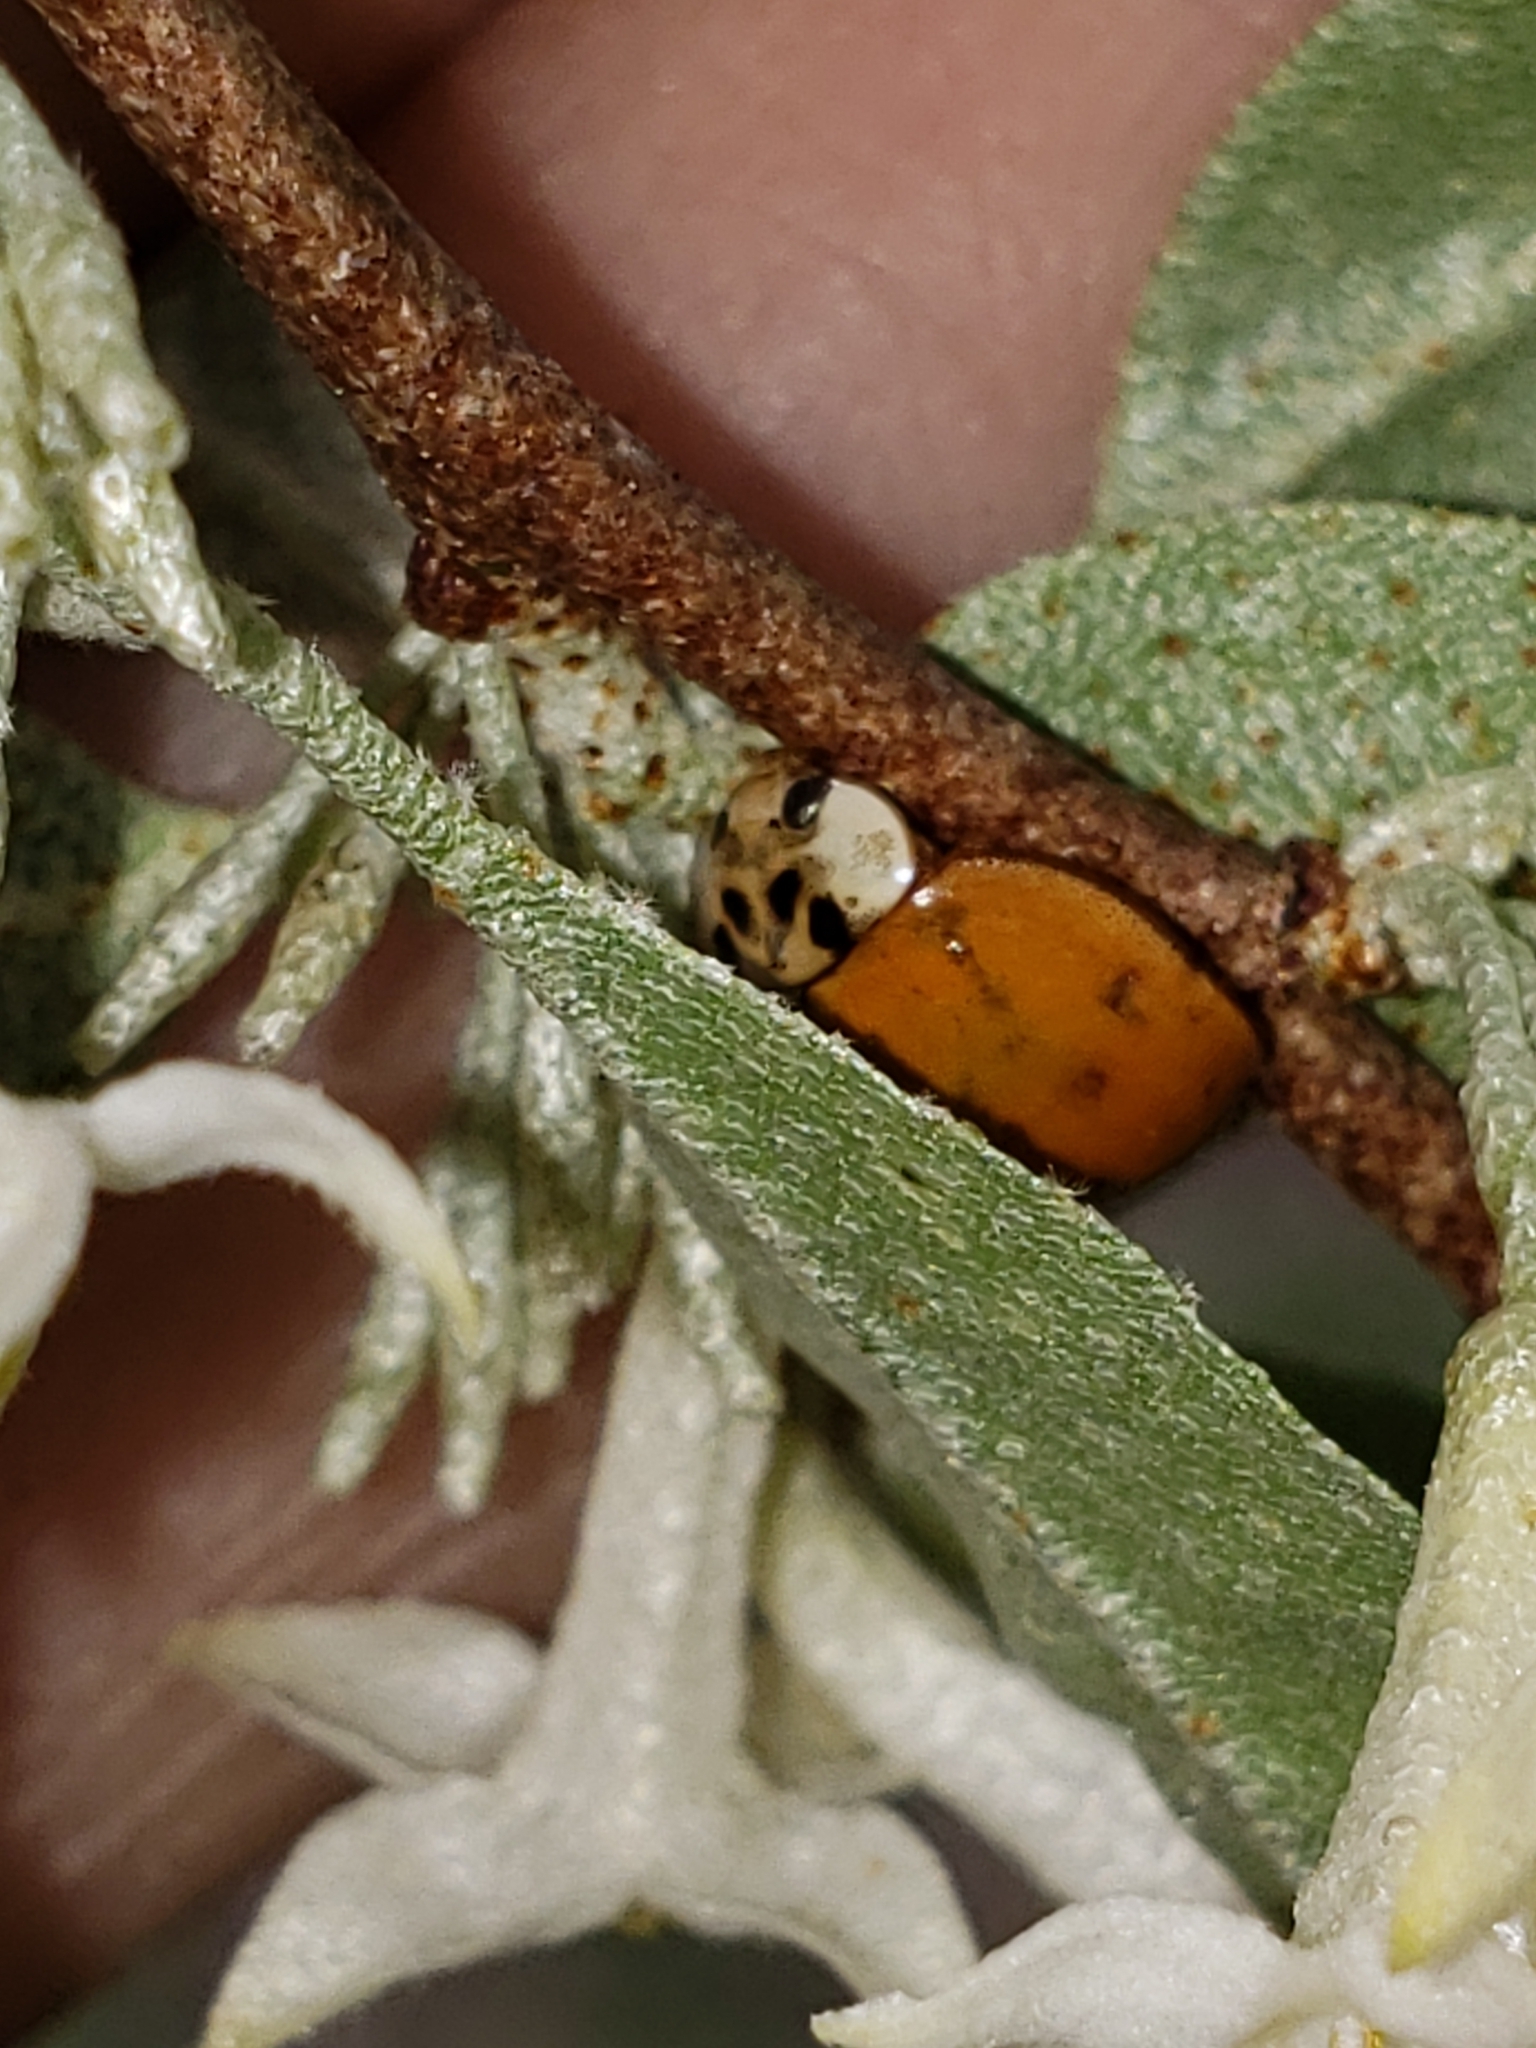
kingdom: Animalia
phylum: Arthropoda
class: Insecta
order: Coleoptera
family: Coccinellidae
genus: Harmonia
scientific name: Harmonia axyridis
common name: Harlequin ladybird
